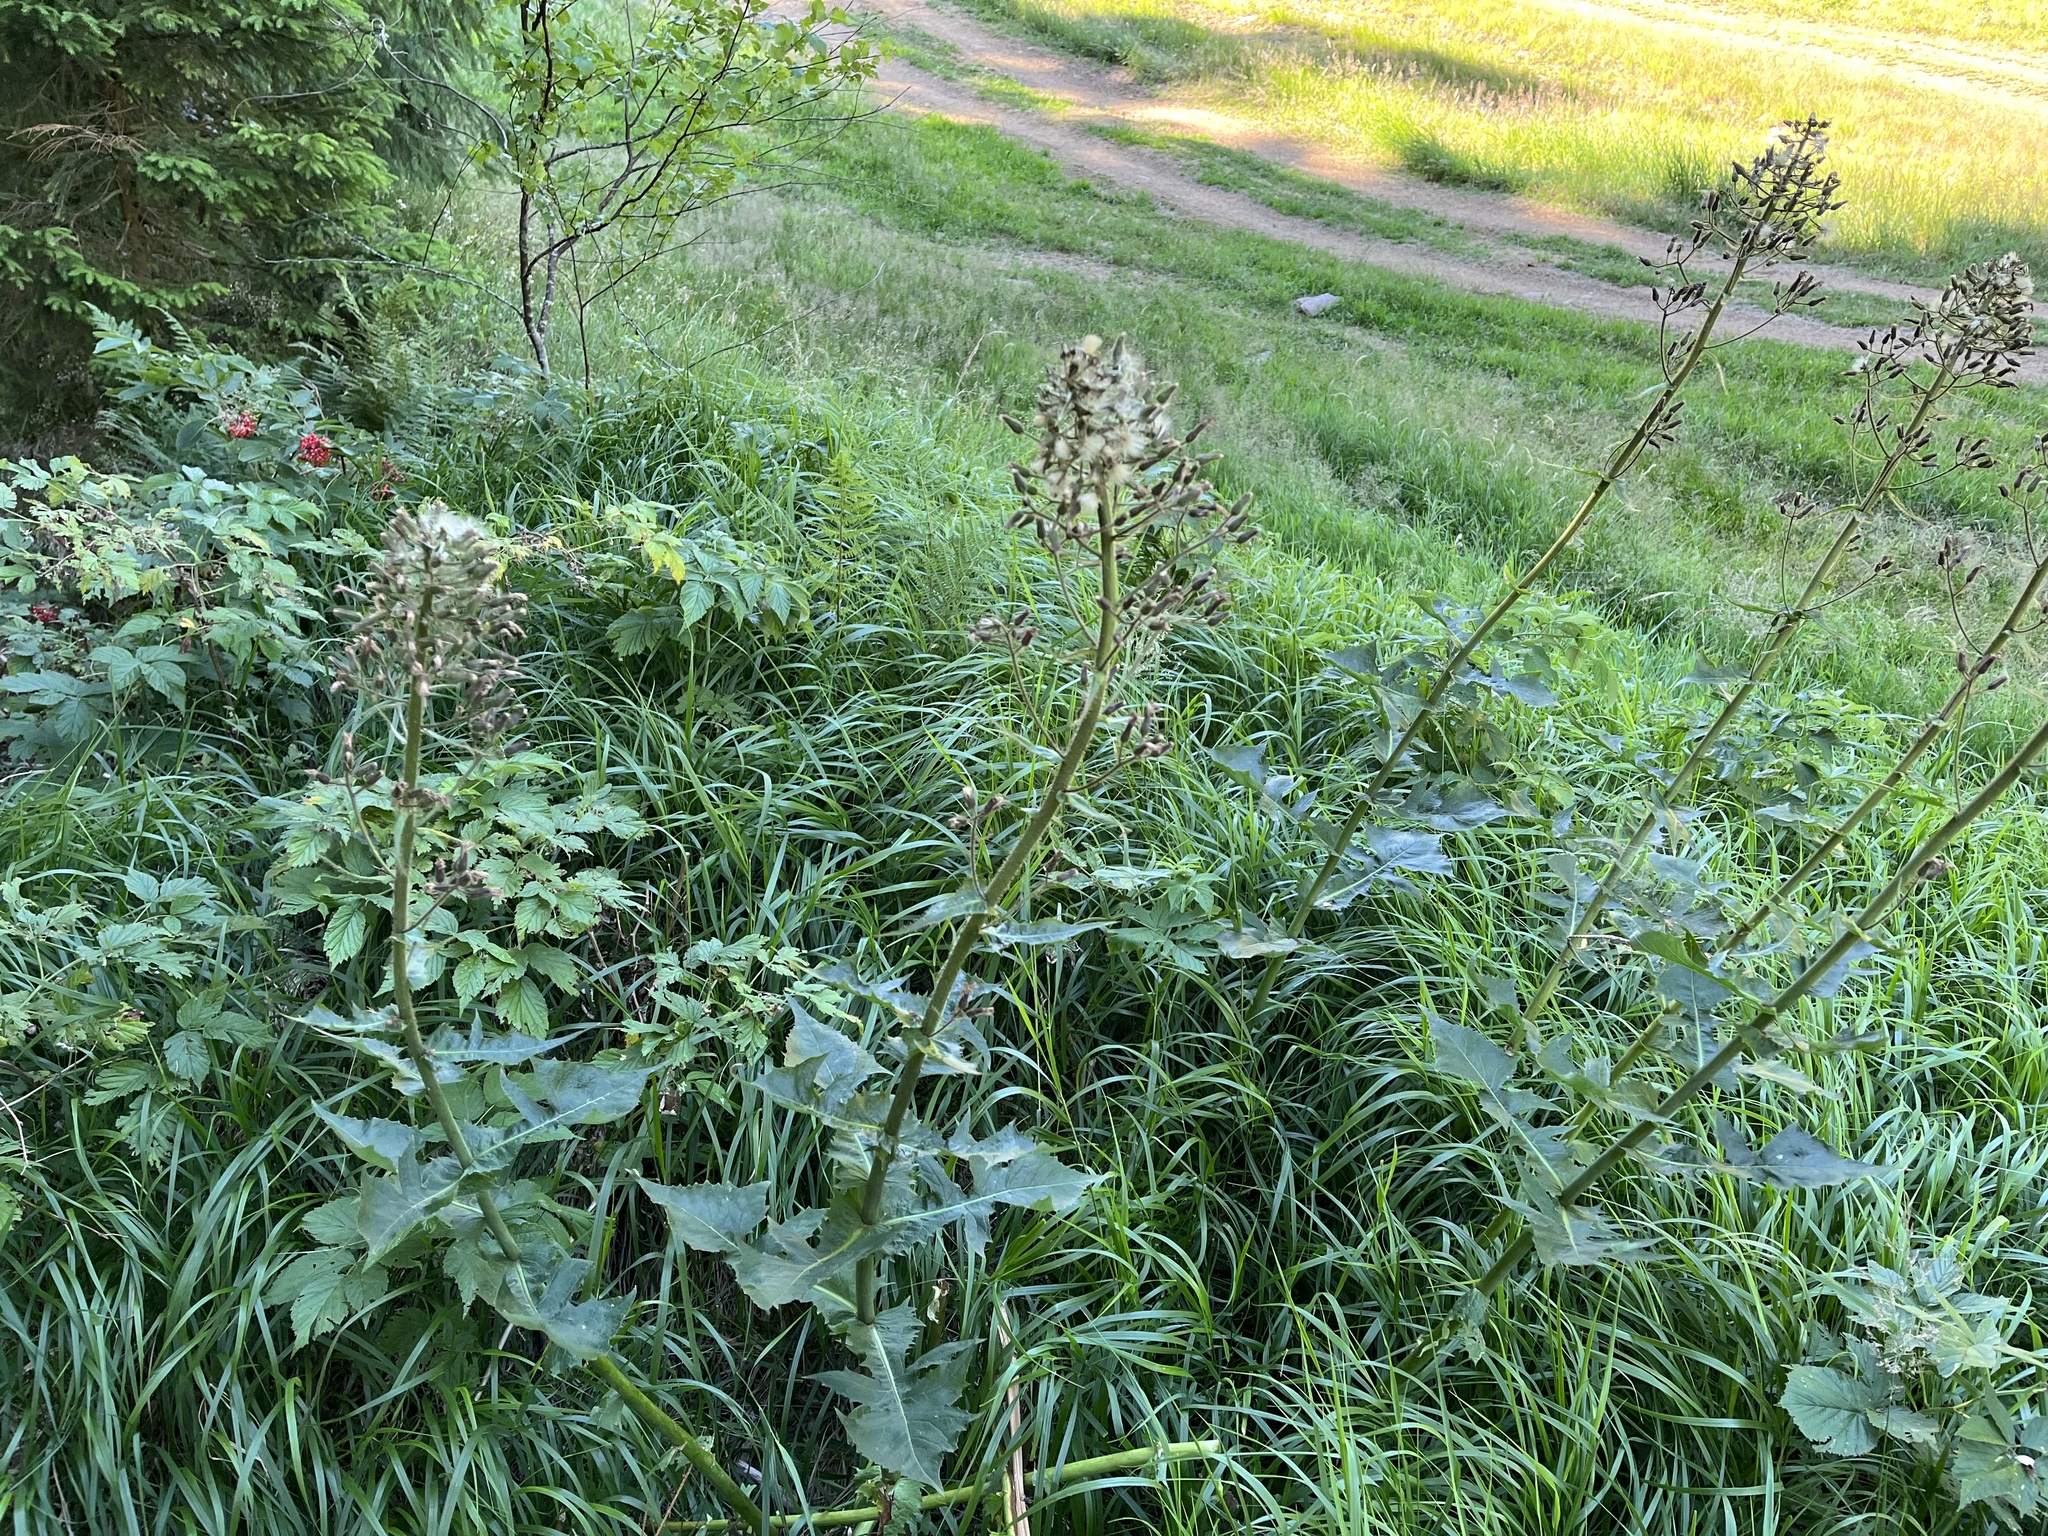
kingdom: Plantae
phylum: Tracheophyta
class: Magnoliopsida
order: Asterales
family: Asteraceae
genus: Cicerbita
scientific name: Cicerbita alpina
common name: Alpine blue-sow-thistle
